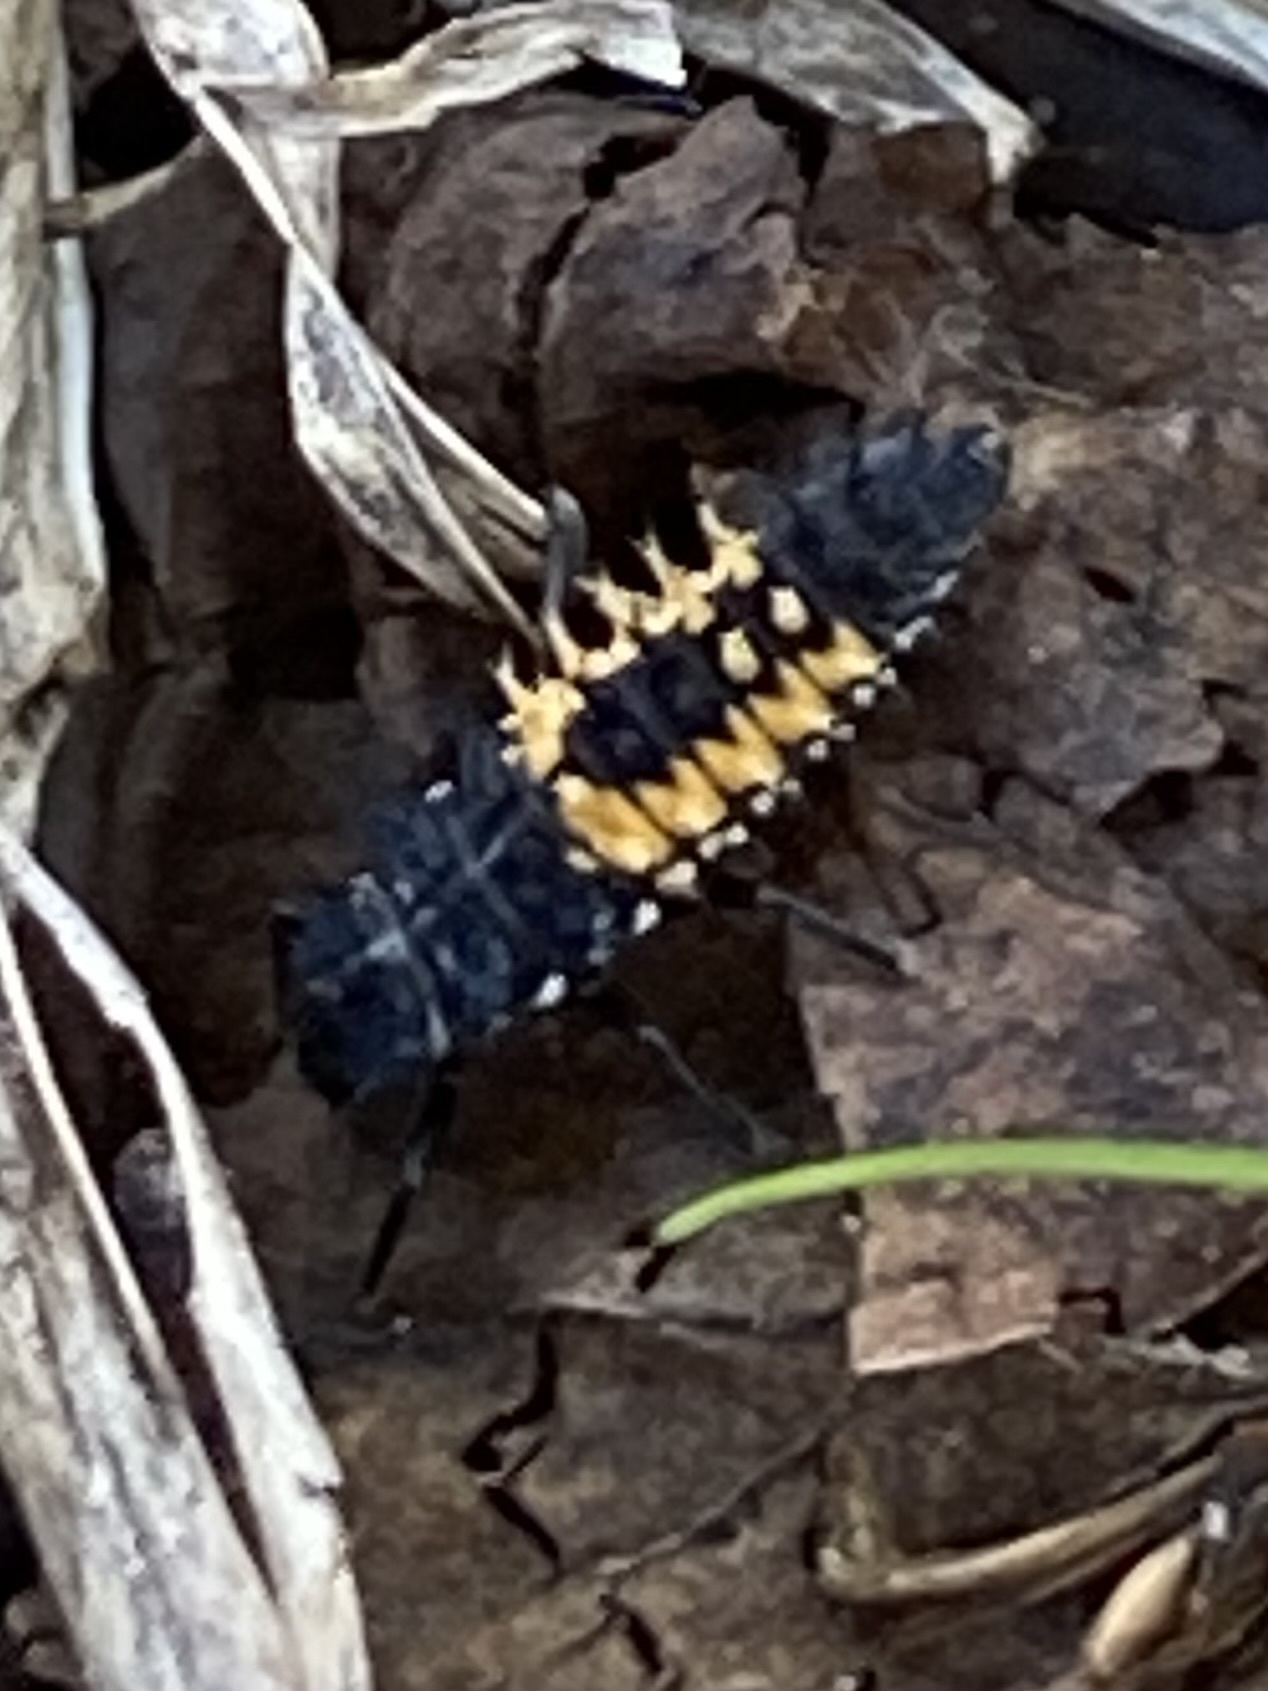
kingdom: Animalia
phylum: Arthropoda
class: Insecta
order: Coleoptera
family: Coccinellidae
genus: Harmonia
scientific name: Harmonia axyridis
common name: Harlequin ladybird
